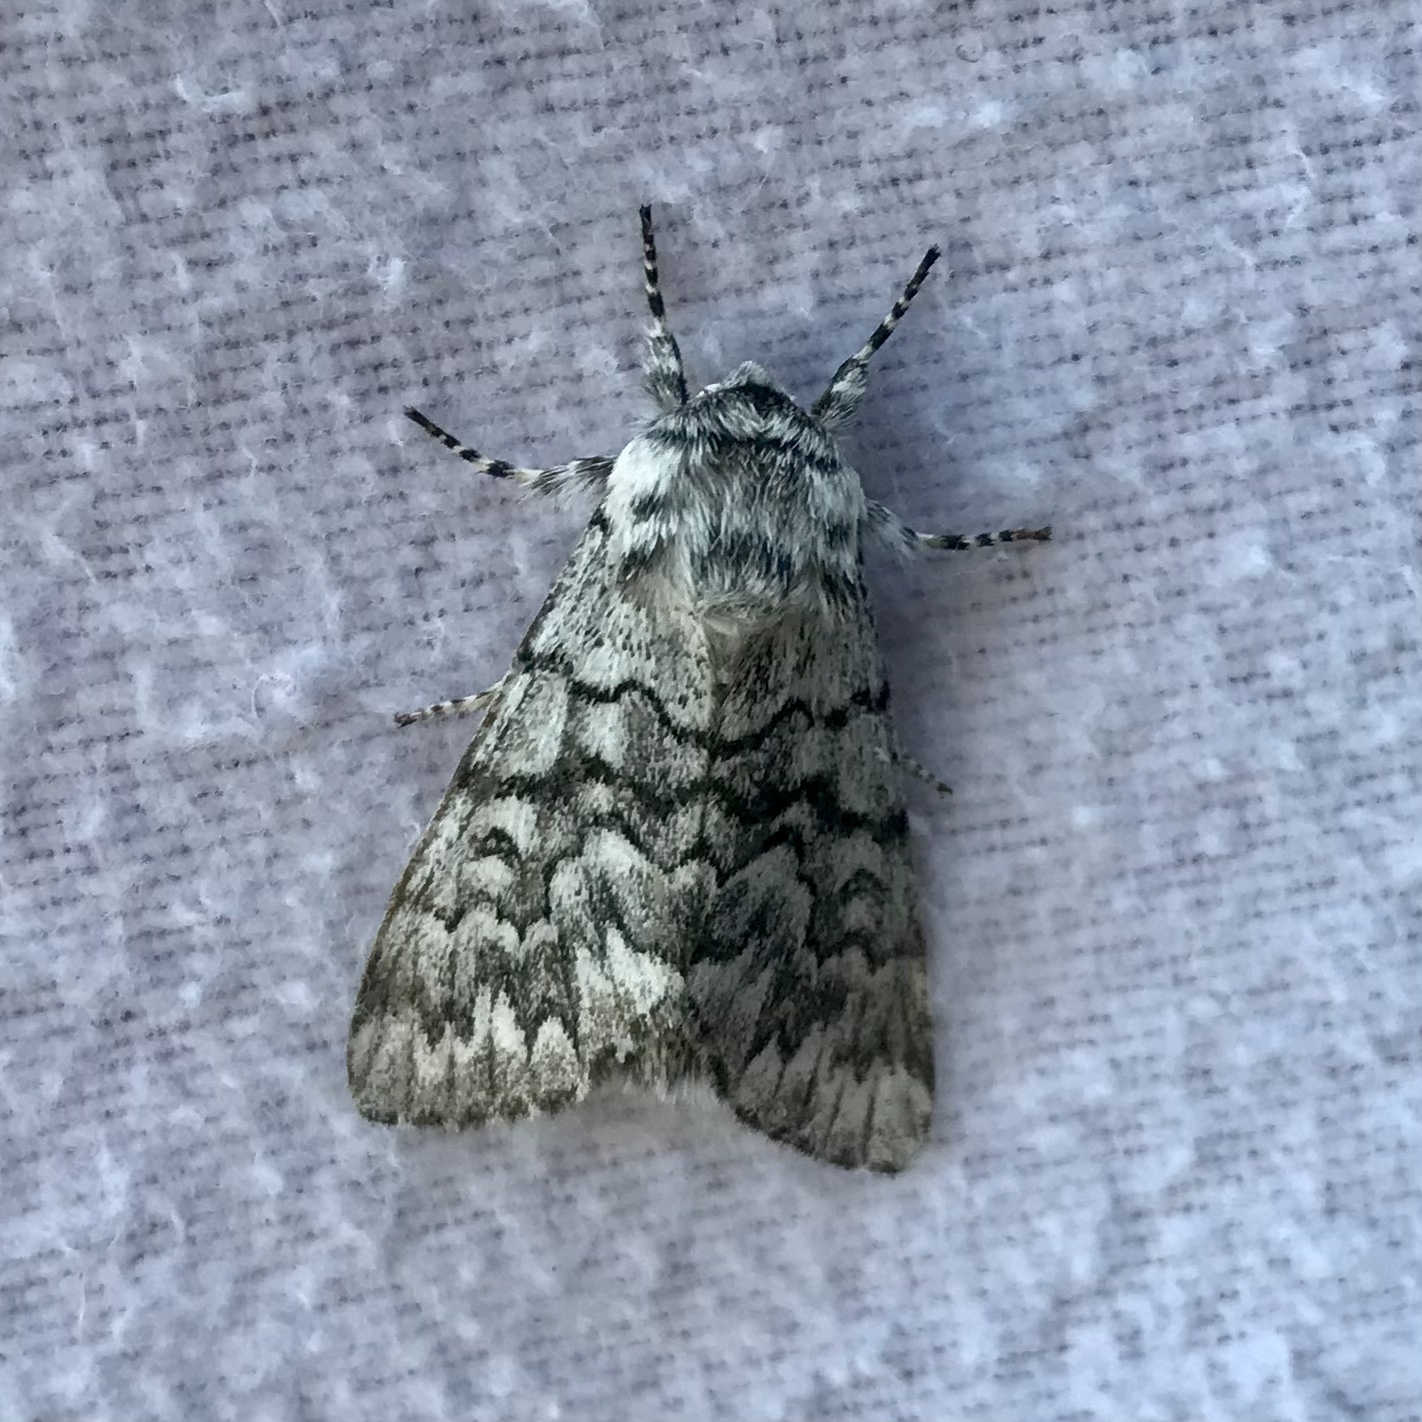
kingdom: Animalia
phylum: Arthropoda
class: Insecta
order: Lepidoptera
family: Noctuidae
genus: Panthea
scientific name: Panthea virginarius
